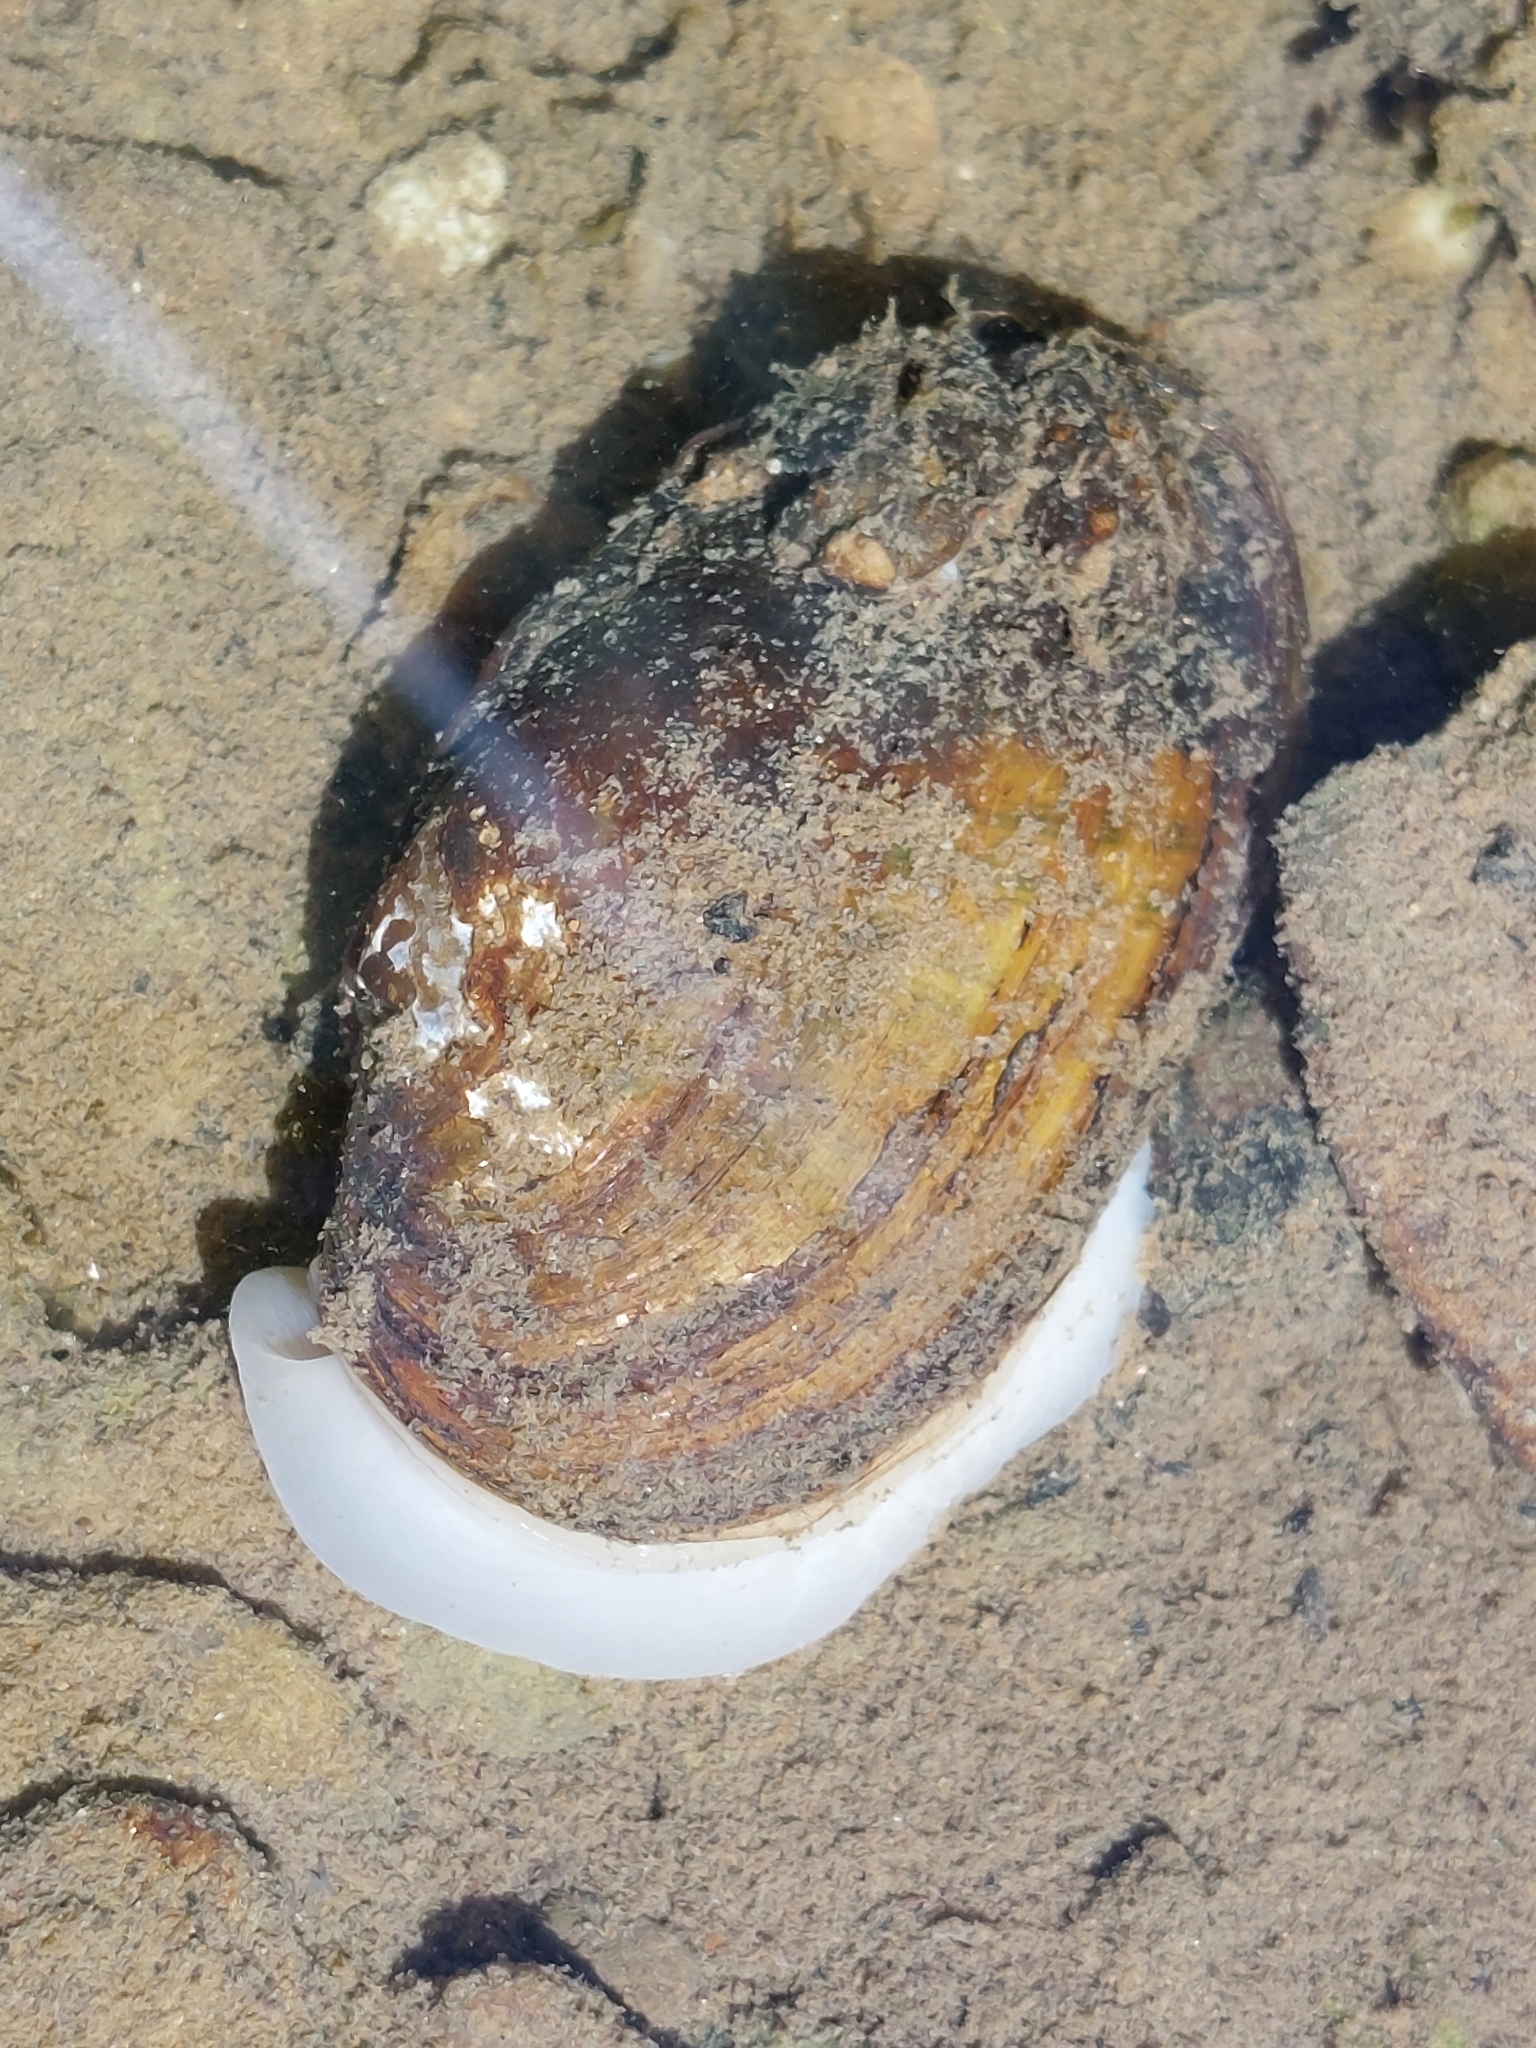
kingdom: Animalia
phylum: Mollusca
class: Bivalvia
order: Unionida
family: Unionidae
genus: Unio
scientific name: Unio crassus
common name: Thick shelled river mussel
